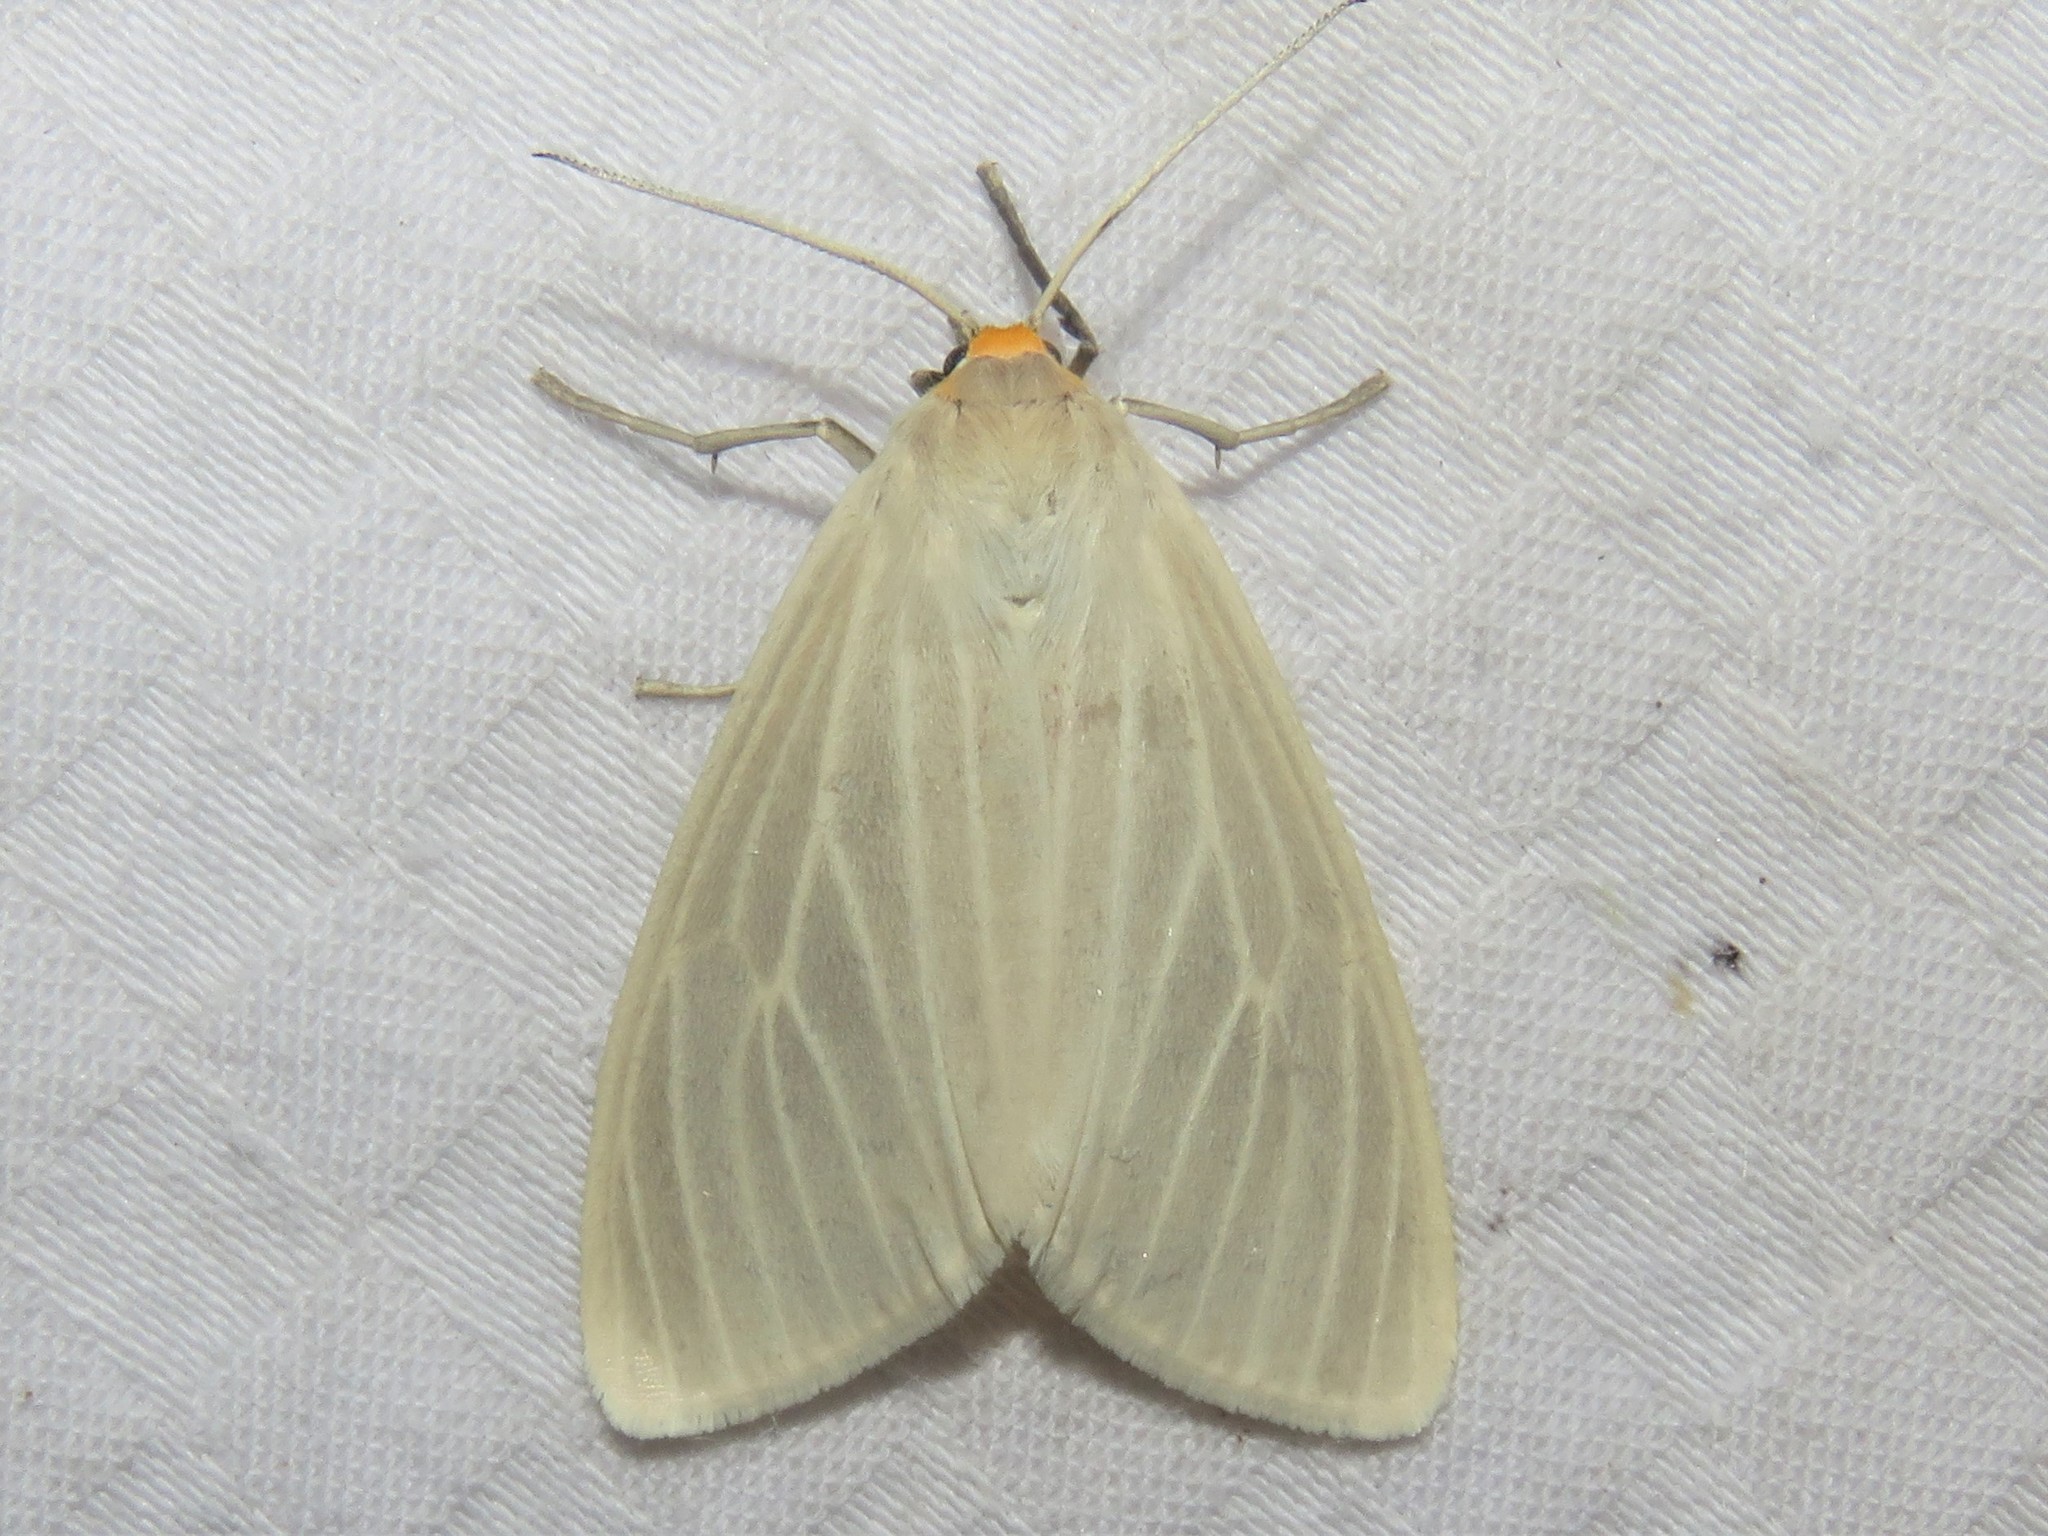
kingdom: Animalia
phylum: Arthropoda
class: Insecta
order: Lepidoptera
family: Erebidae
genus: Cycnia
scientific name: Cycnia oregonensis
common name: Oregon cycnia moth
